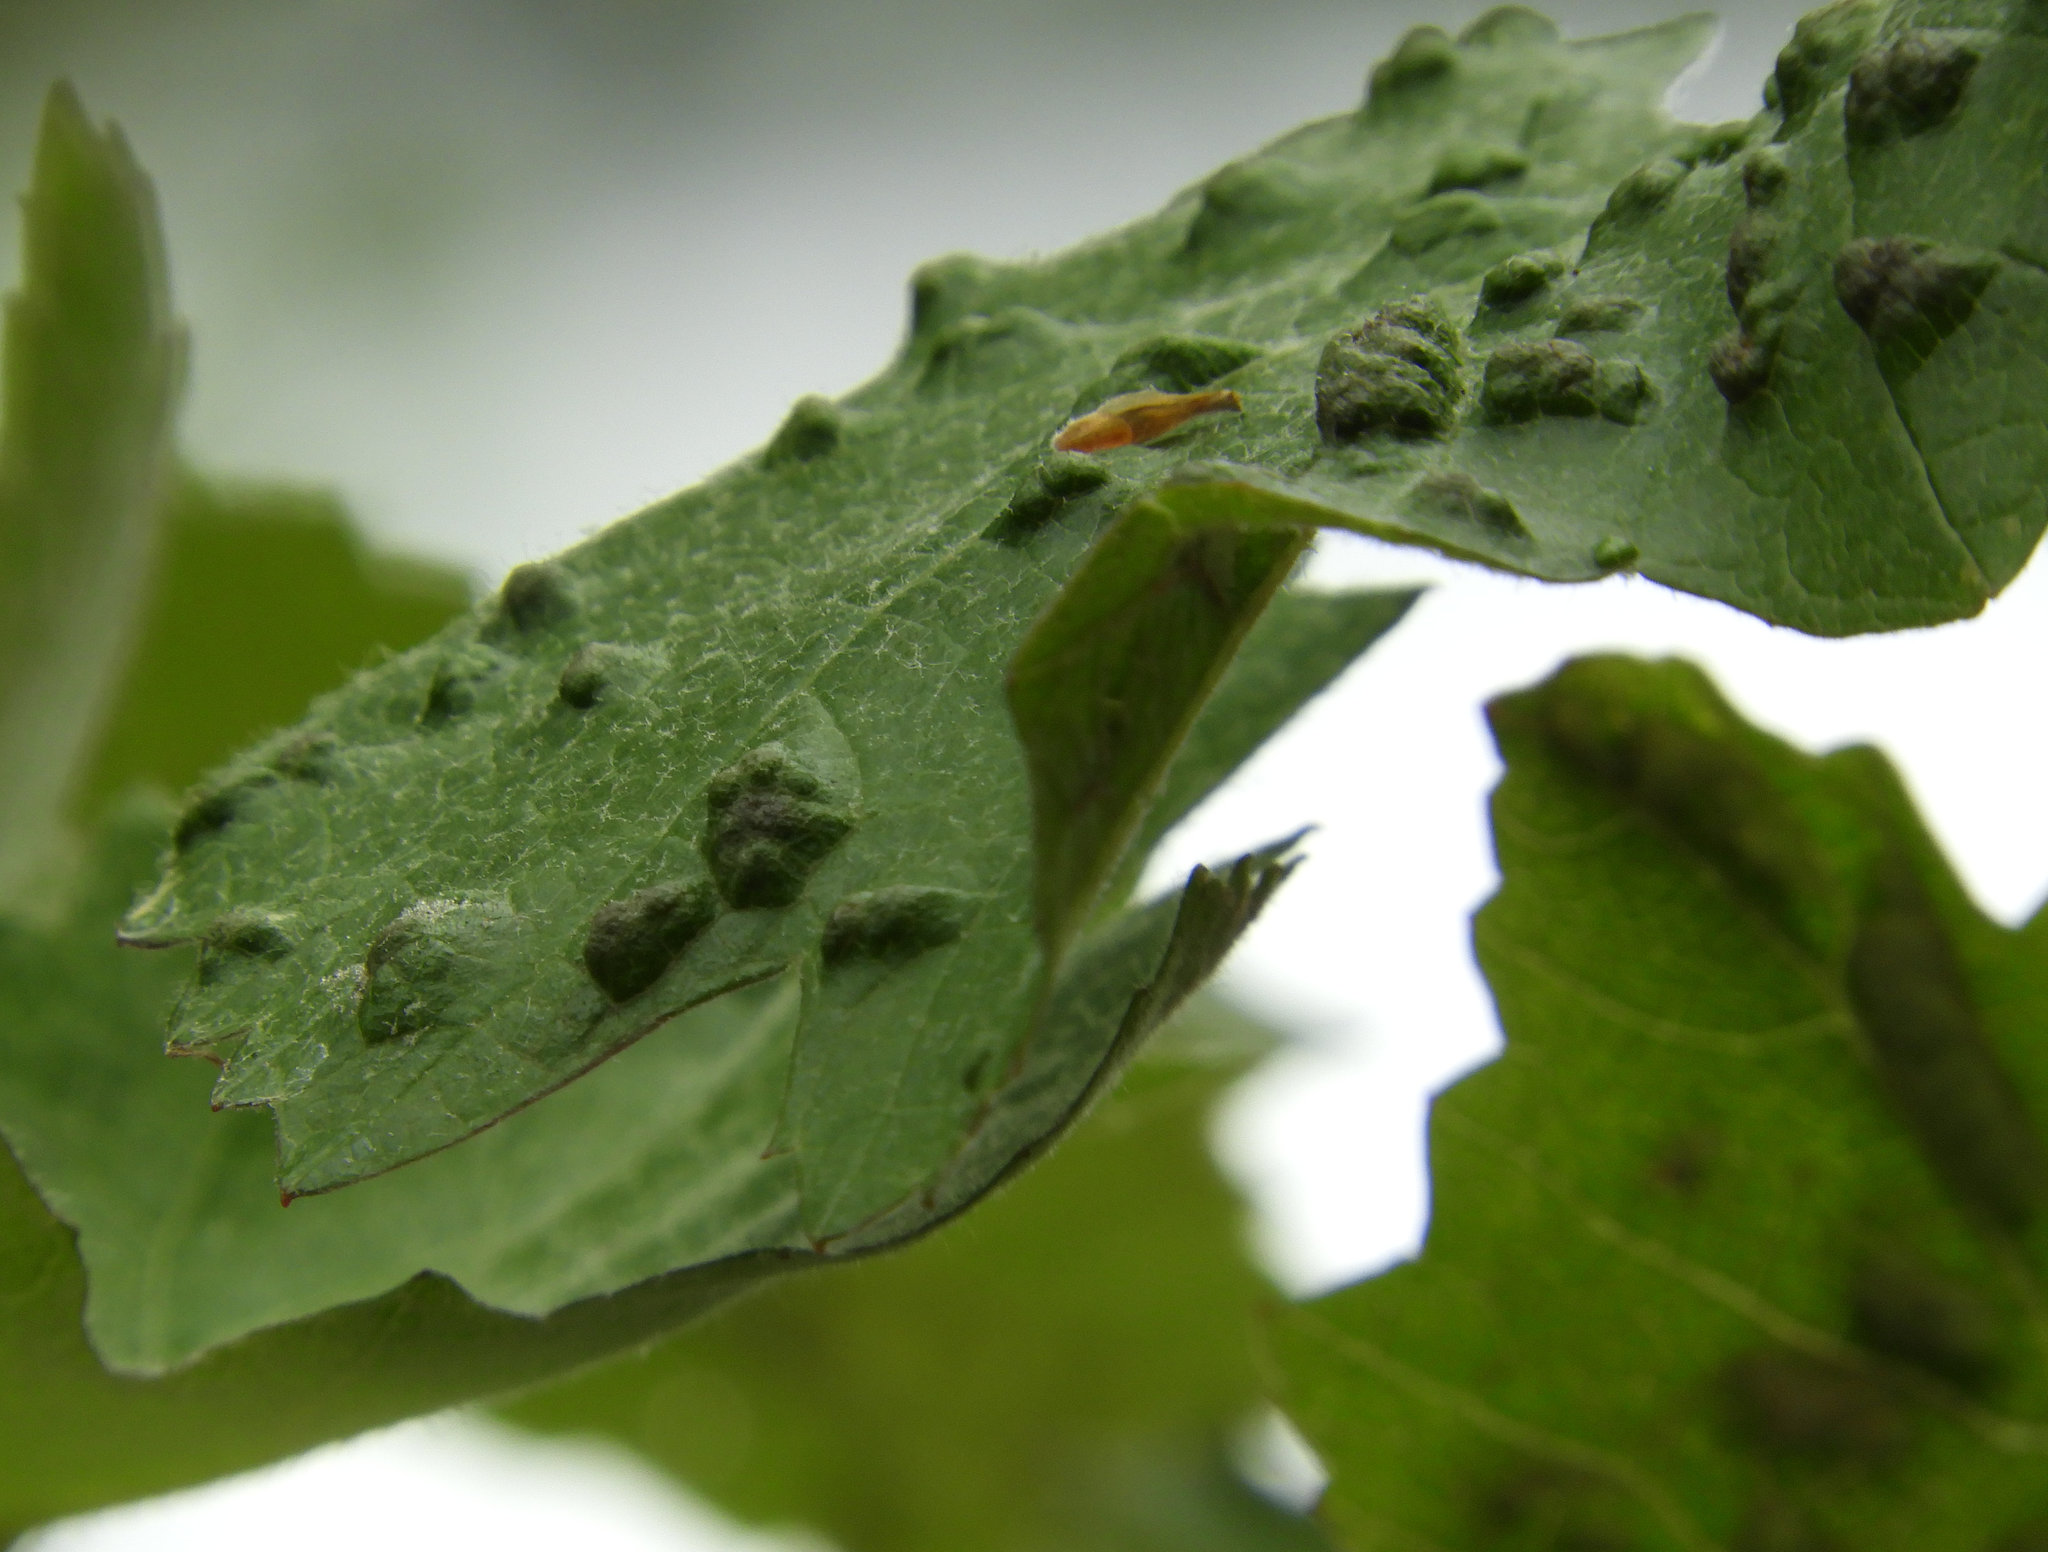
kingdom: Animalia
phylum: Arthropoda
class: Arachnida
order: Trombidiformes
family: Eriophyidae
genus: Colomerus
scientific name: Colomerus vitis
